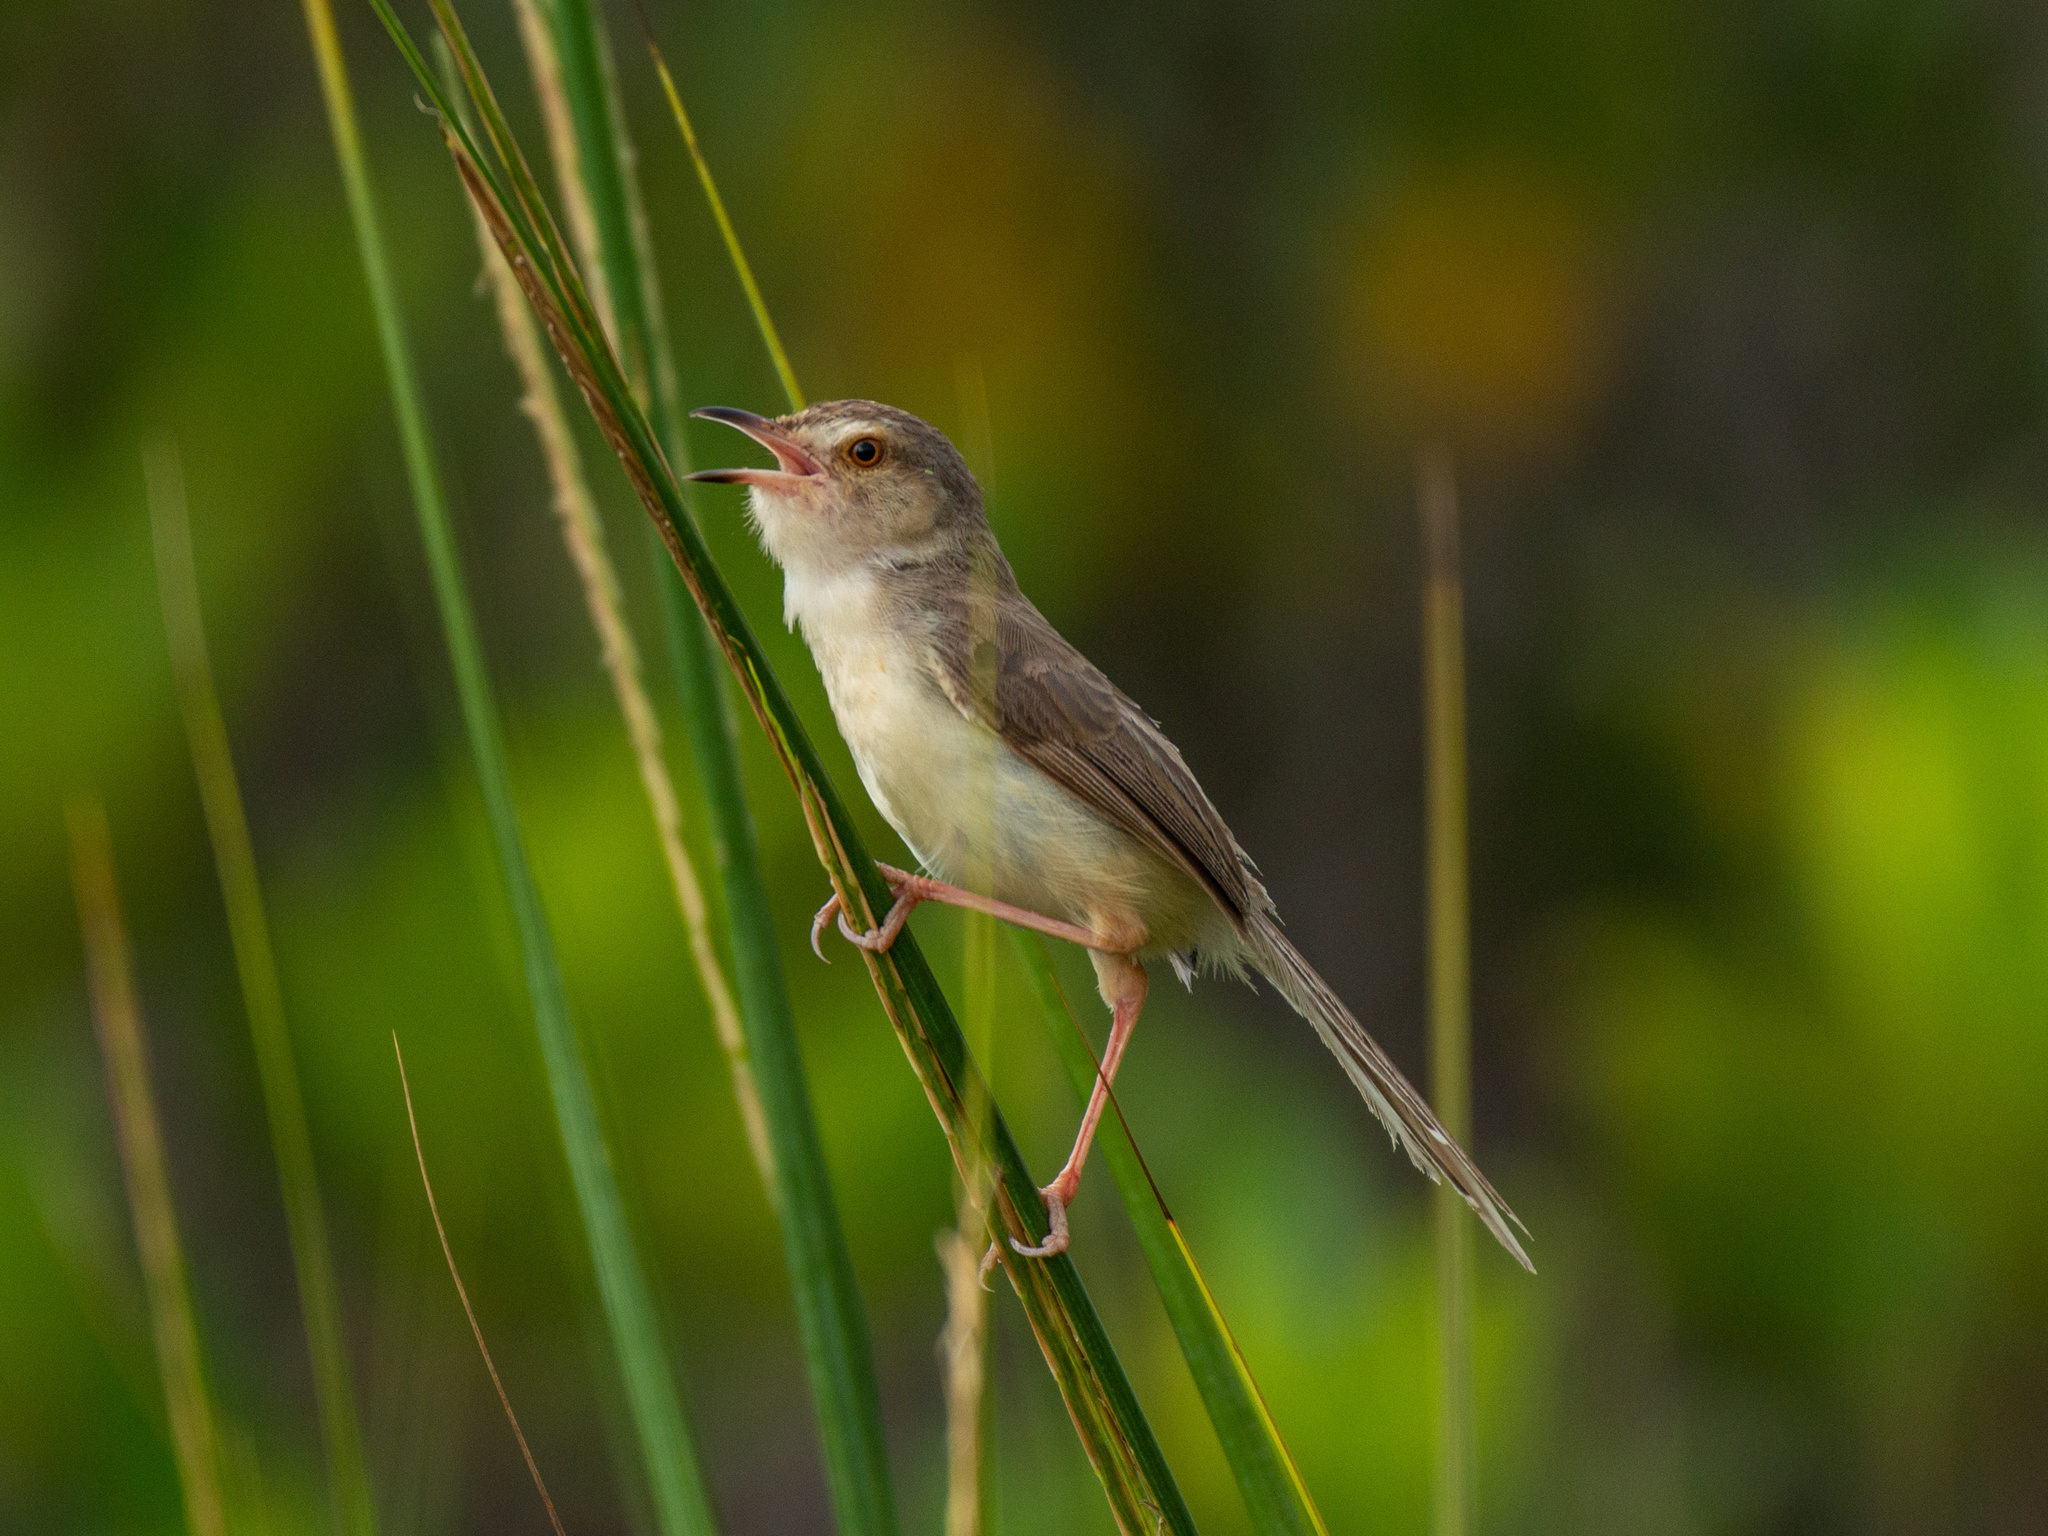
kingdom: Animalia
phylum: Chordata
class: Aves
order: Passeriformes
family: Cisticolidae
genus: Prinia
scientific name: Prinia inornata
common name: Plain prinia
